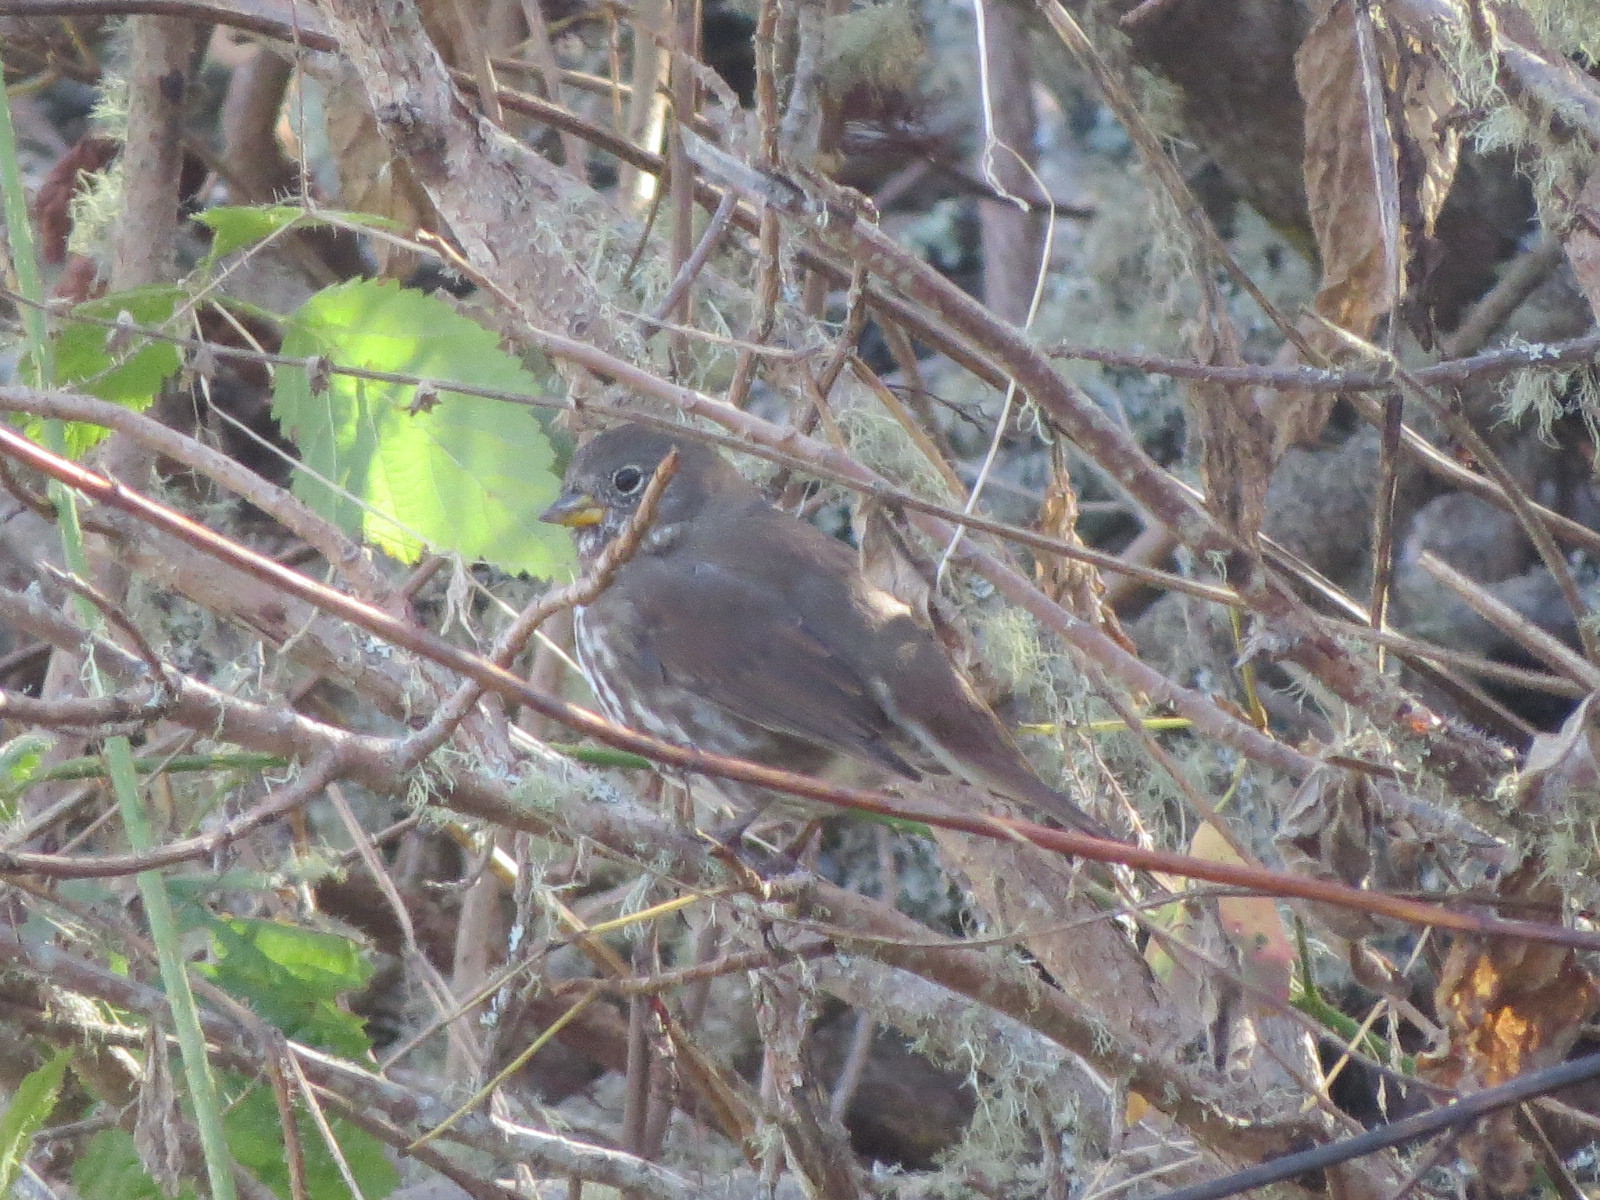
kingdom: Animalia
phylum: Chordata
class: Aves
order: Passeriformes
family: Passerellidae
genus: Passerella
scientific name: Passerella iliaca
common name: Fox sparrow
